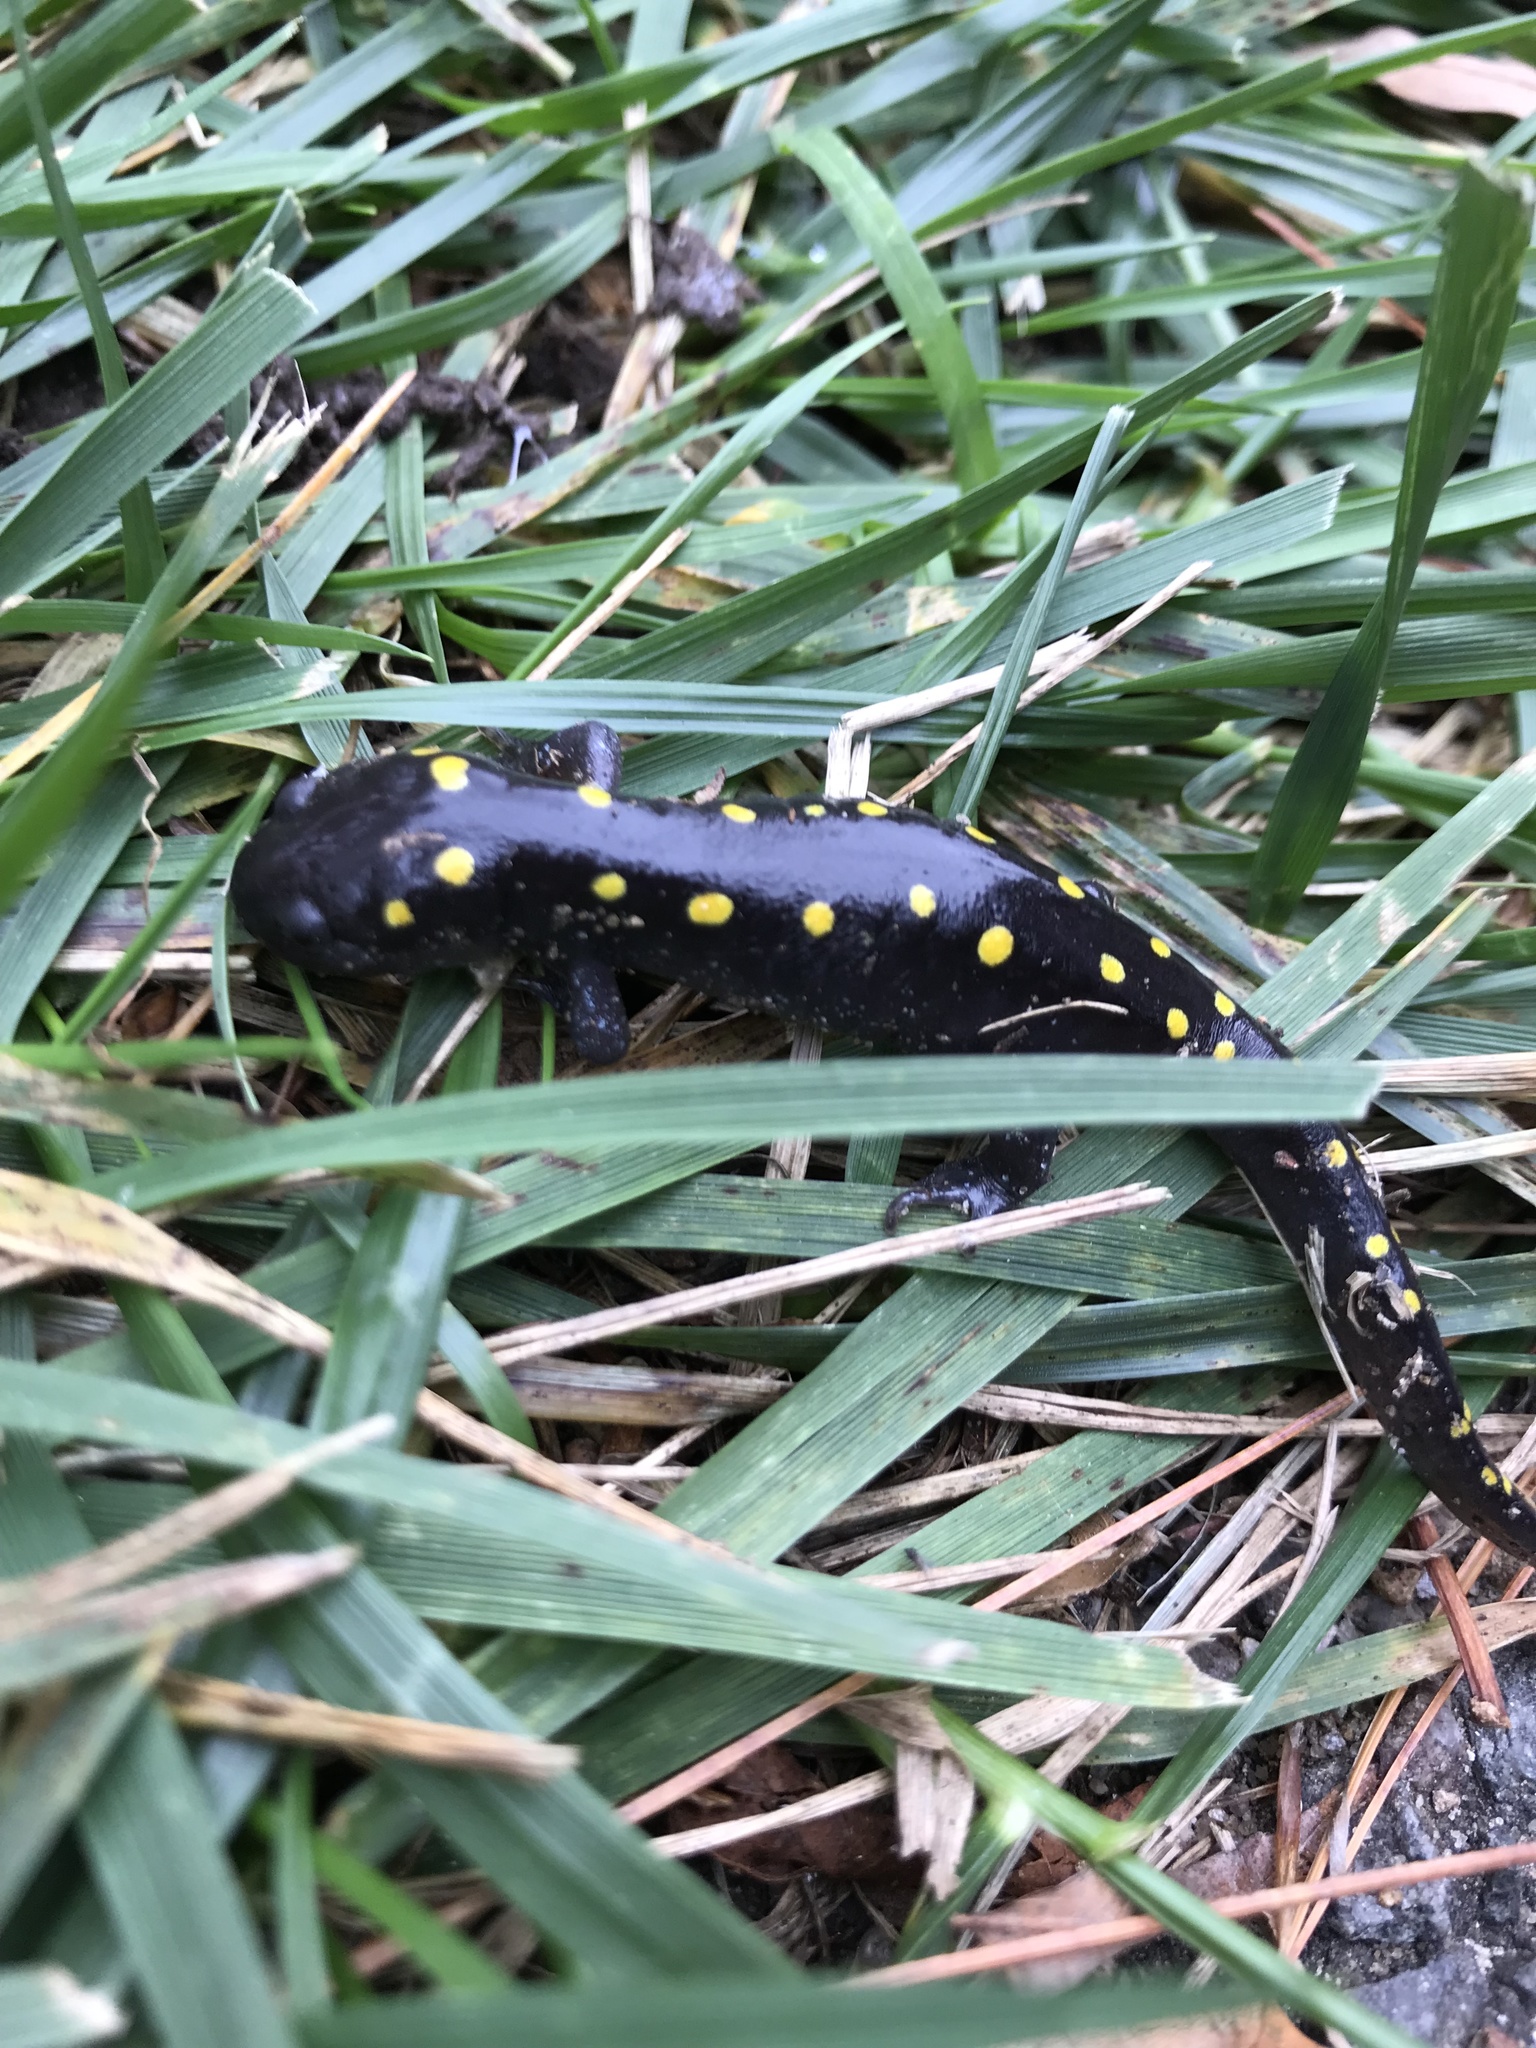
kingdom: Animalia
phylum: Chordata
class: Amphibia
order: Caudata
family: Ambystomatidae
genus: Ambystoma
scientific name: Ambystoma maculatum
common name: Spotted salamander
